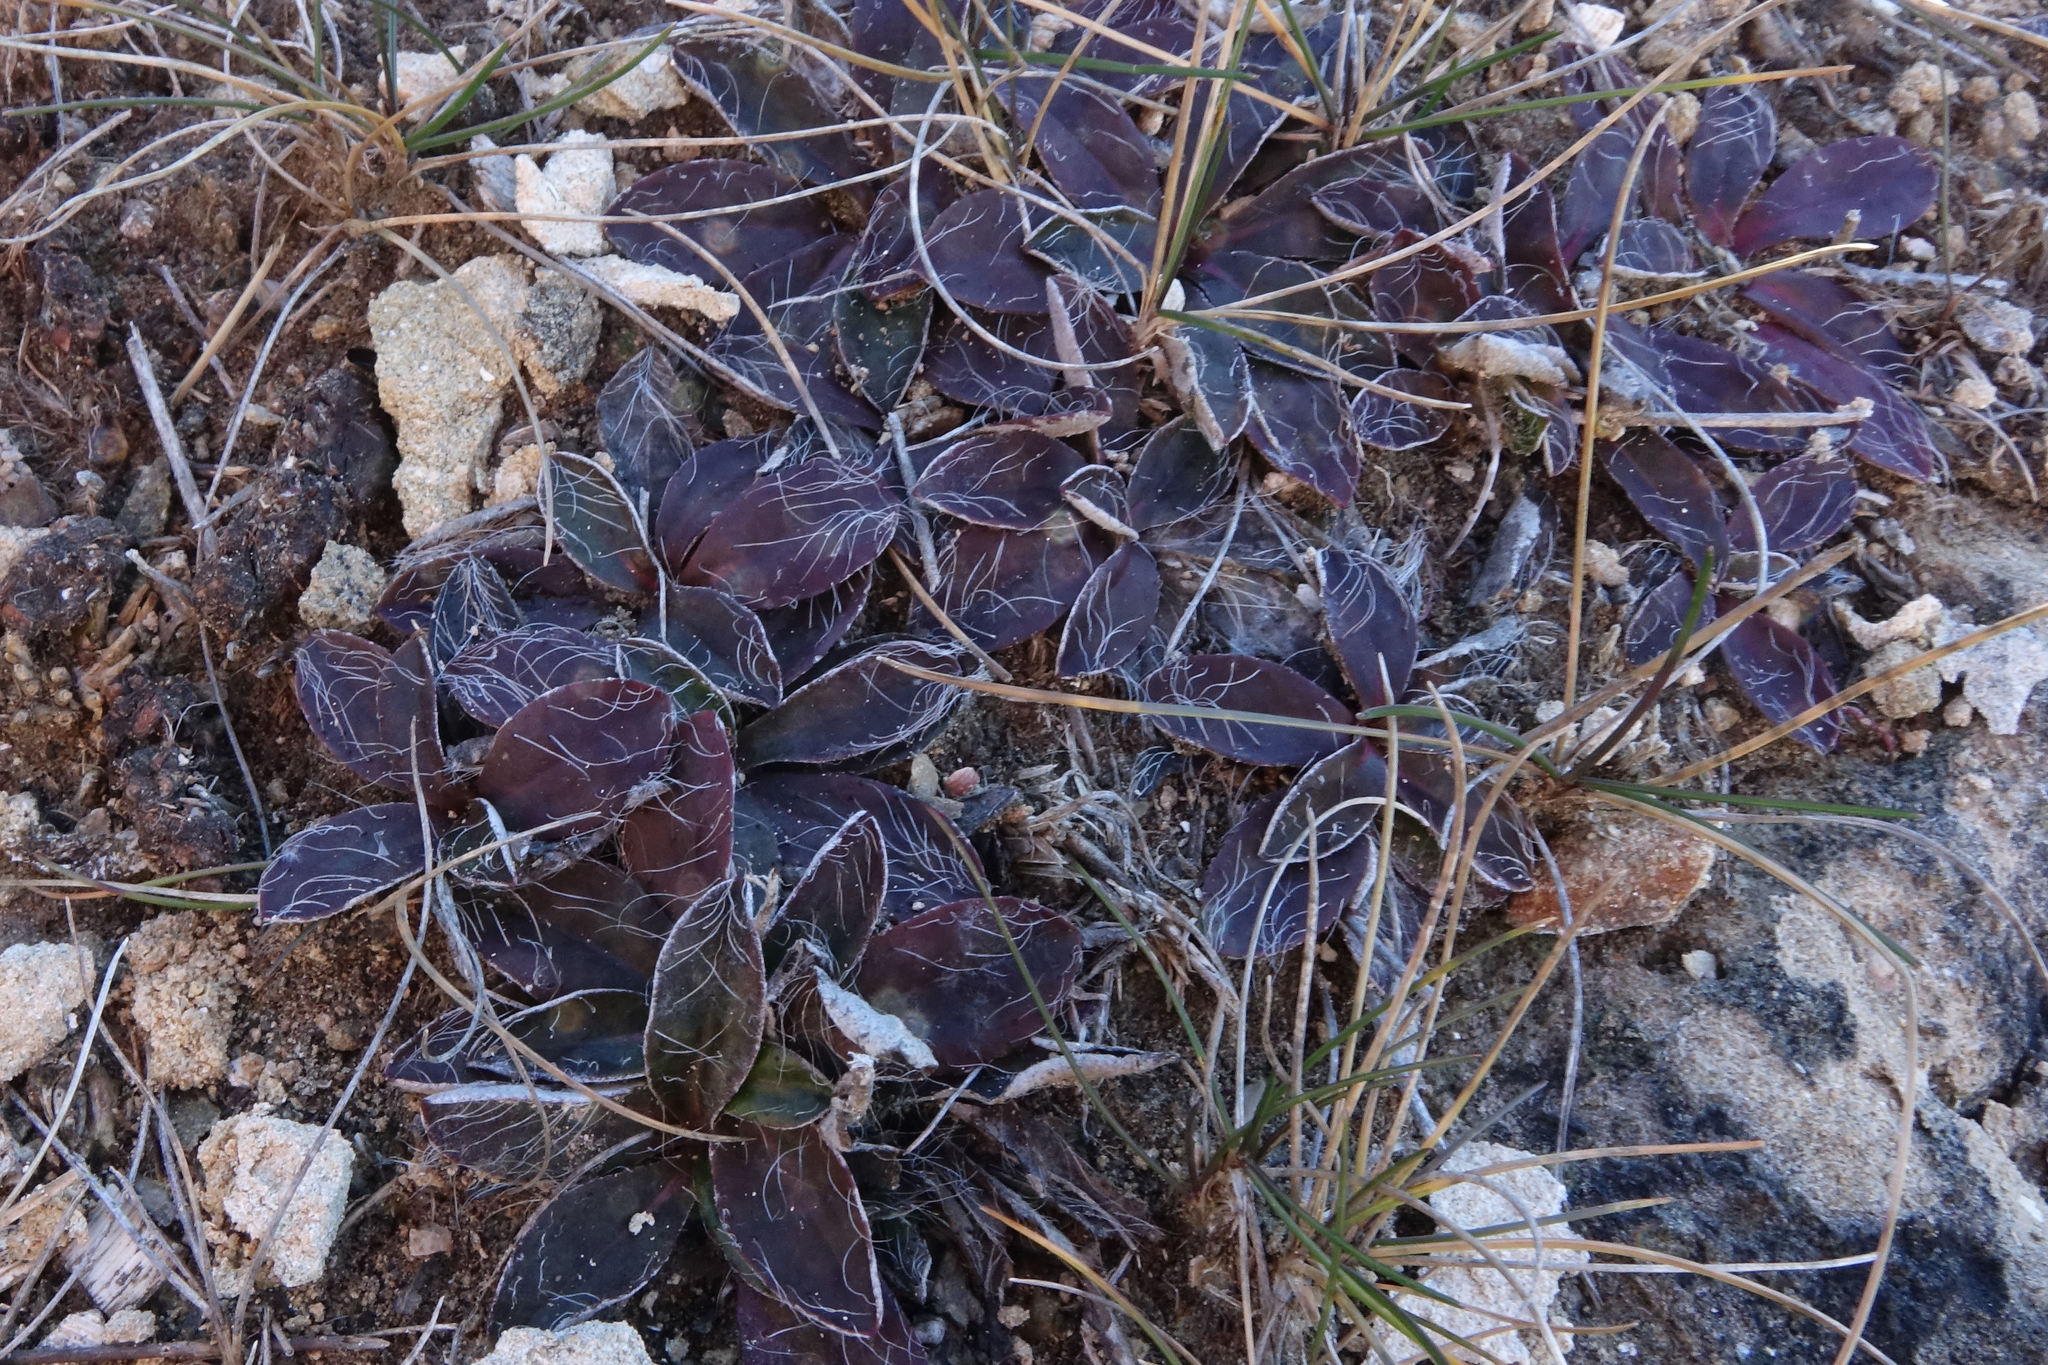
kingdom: Plantae
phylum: Tracheophyta
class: Magnoliopsida
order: Asterales
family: Asteraceae
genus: Pilosella
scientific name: Pilosella officinarum
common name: Mouse-ear hawkweed
